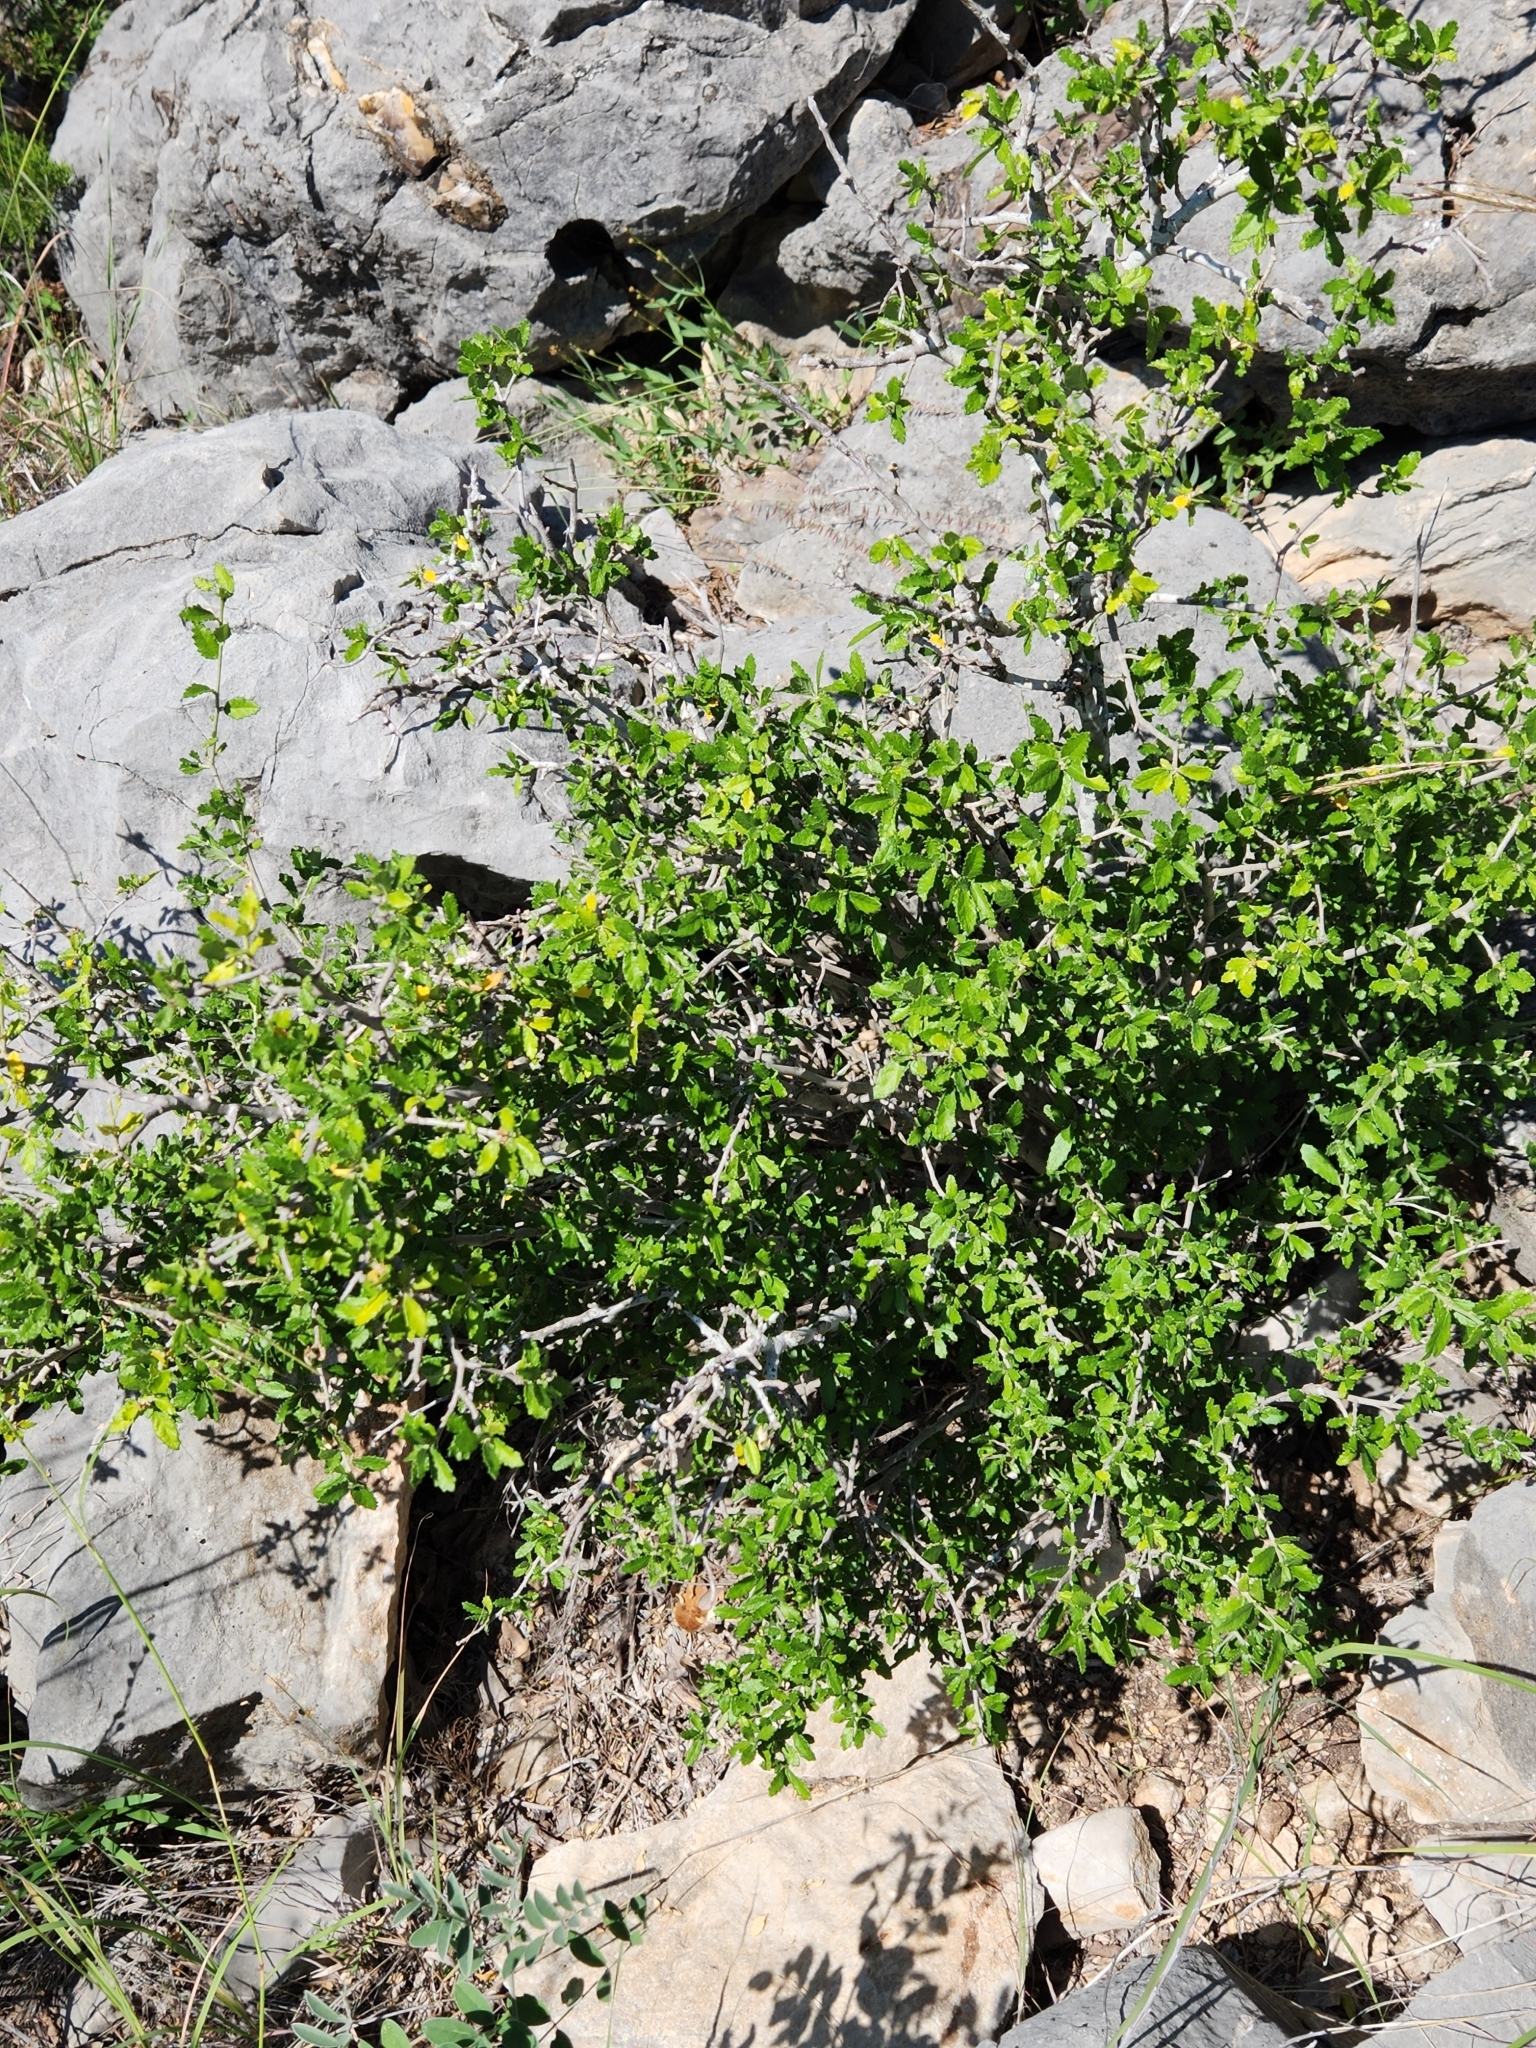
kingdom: Plantae
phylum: Tracheophyta
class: Magnoliopsida
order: Malpighiales
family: Euphorbiaceae
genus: Bernardia
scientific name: Bernardia myricifolia
